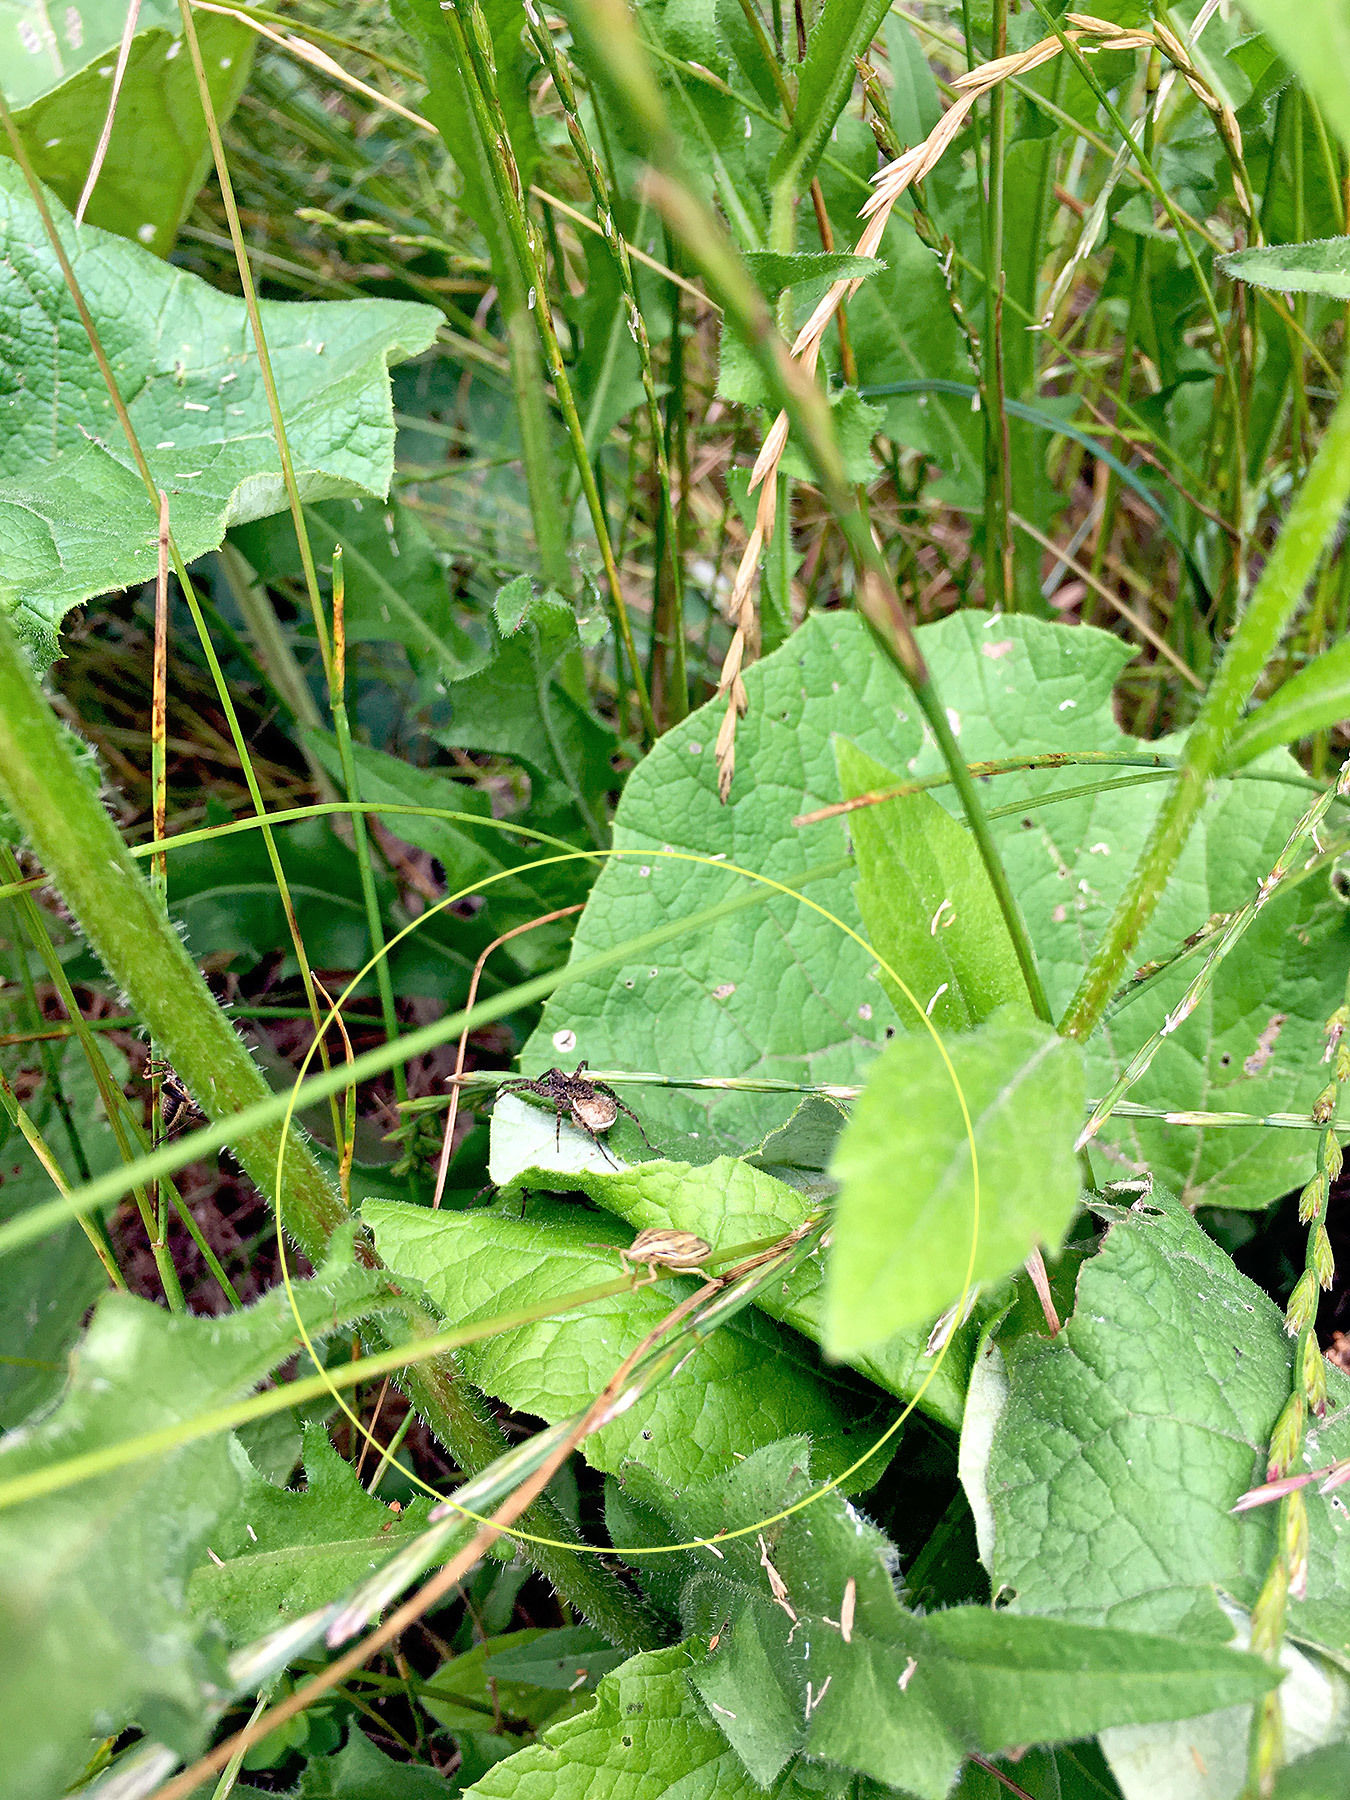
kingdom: Animalia
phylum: Arthropoda
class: Arachnida
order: Araneae
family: Lycosidae
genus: Pardosa
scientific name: Pardosa amentata
